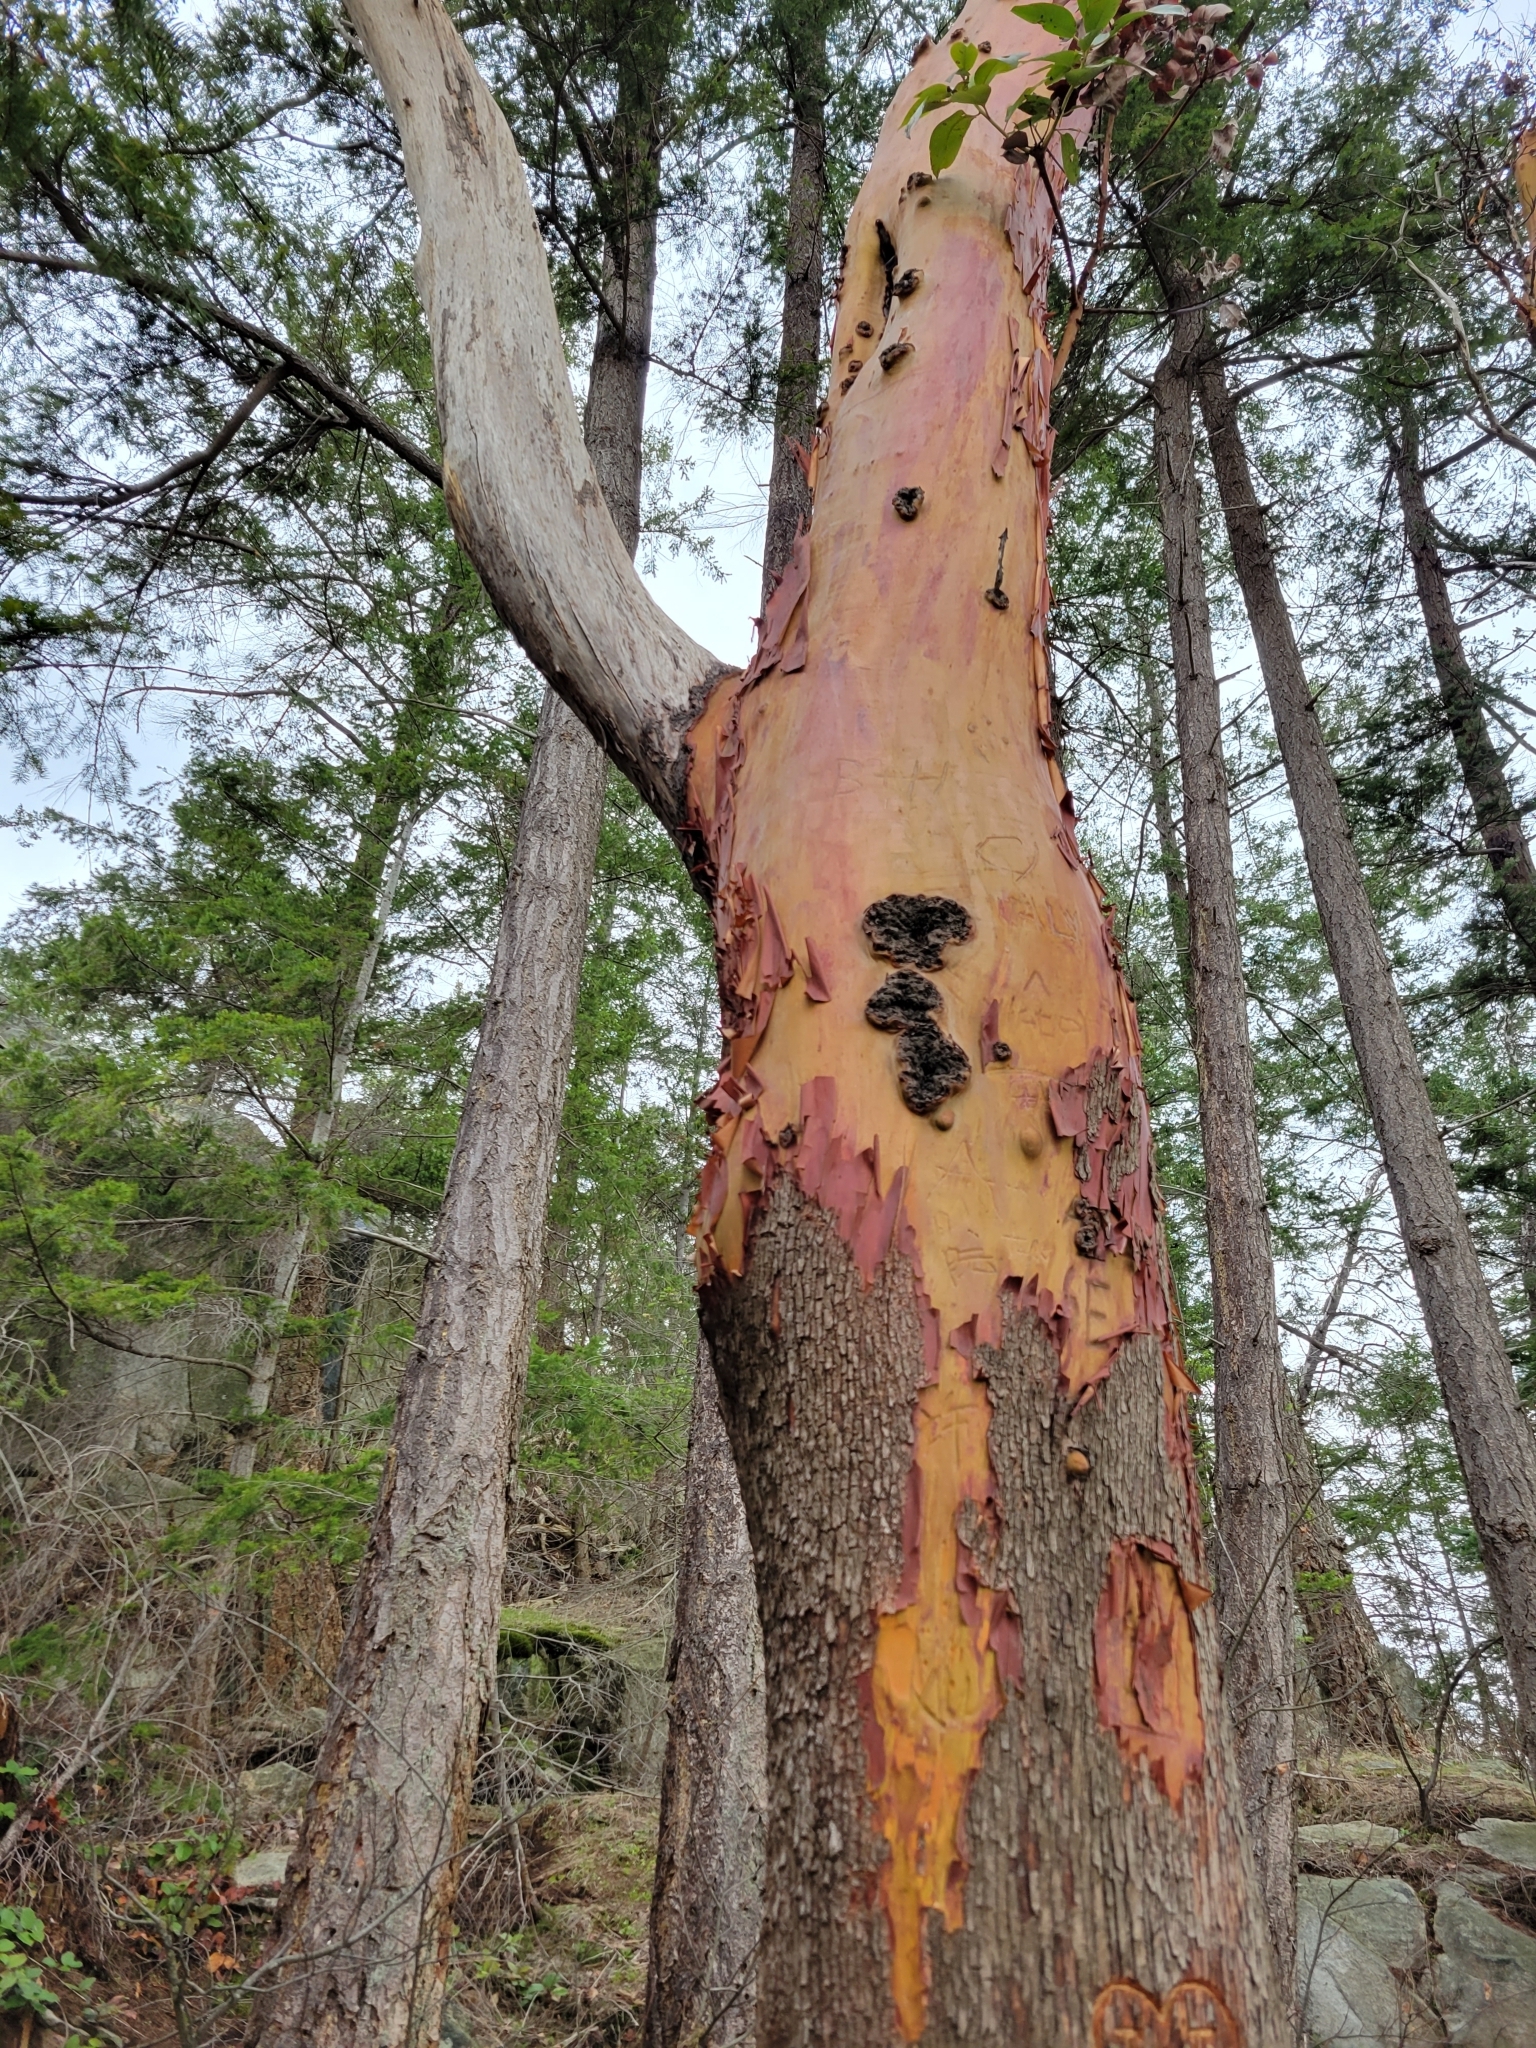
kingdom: Plantae
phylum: Tracheophyta
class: Magnoliopsida
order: Ericales
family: Ericaceae
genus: Arbutus
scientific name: Arbutus menziesii
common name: Pacific madrone
